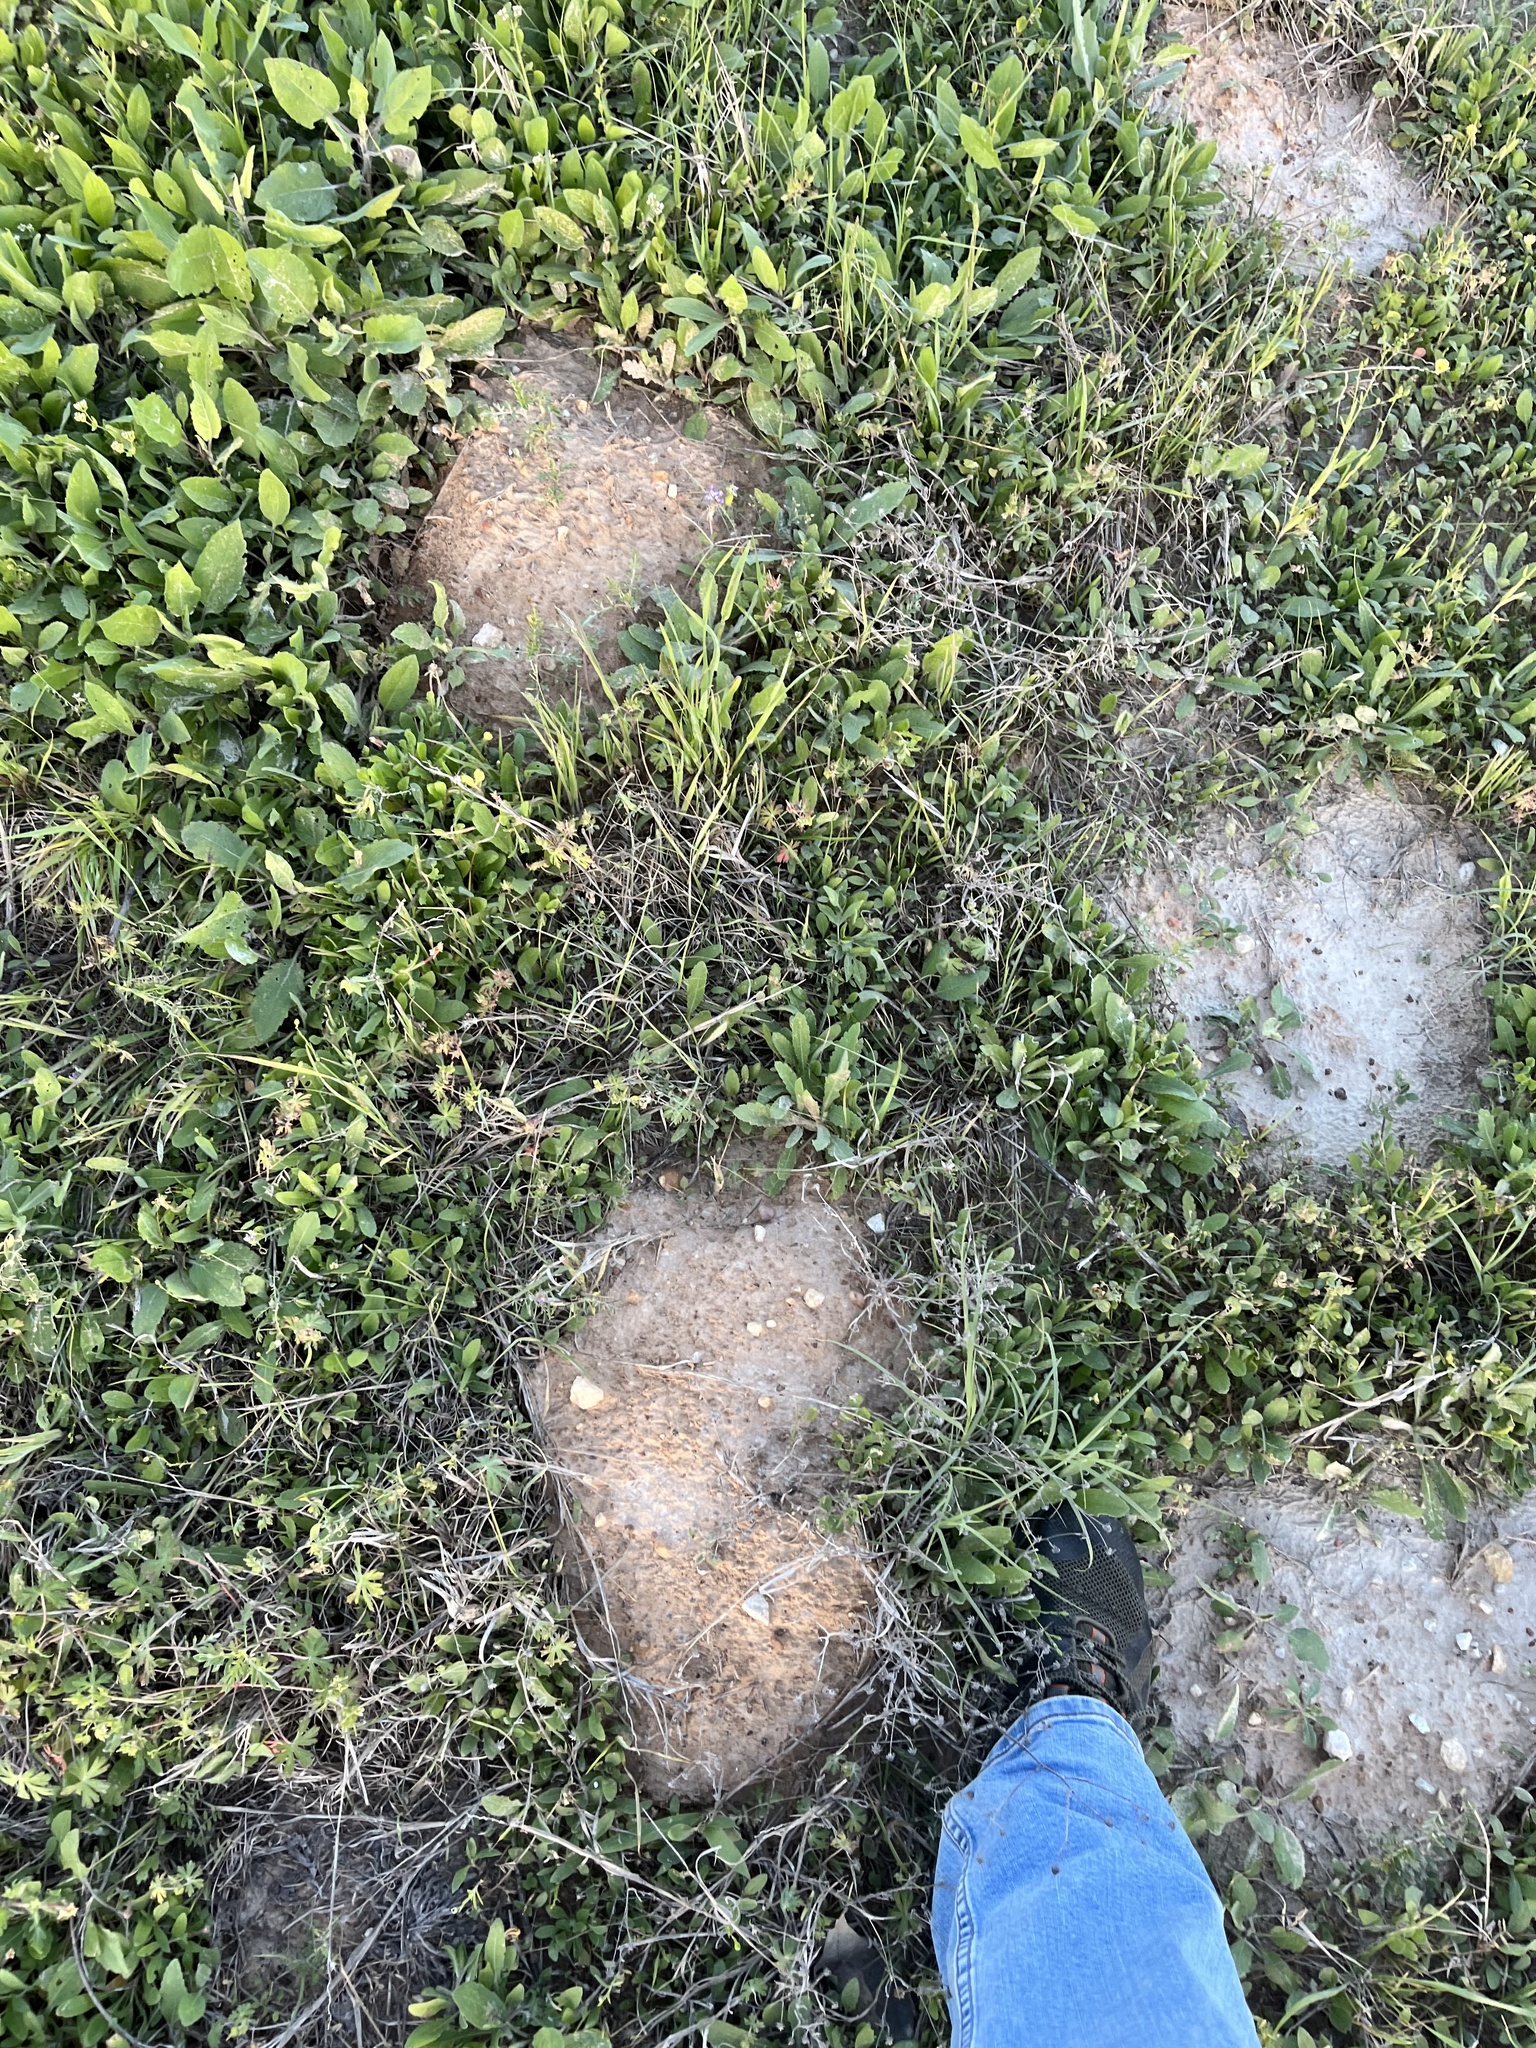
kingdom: Animalia
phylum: Chordata
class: Mammalia
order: Rodentia
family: Geomyidae
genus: Geomys
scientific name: Geomys breviceps
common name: Baird's pocket gopher
